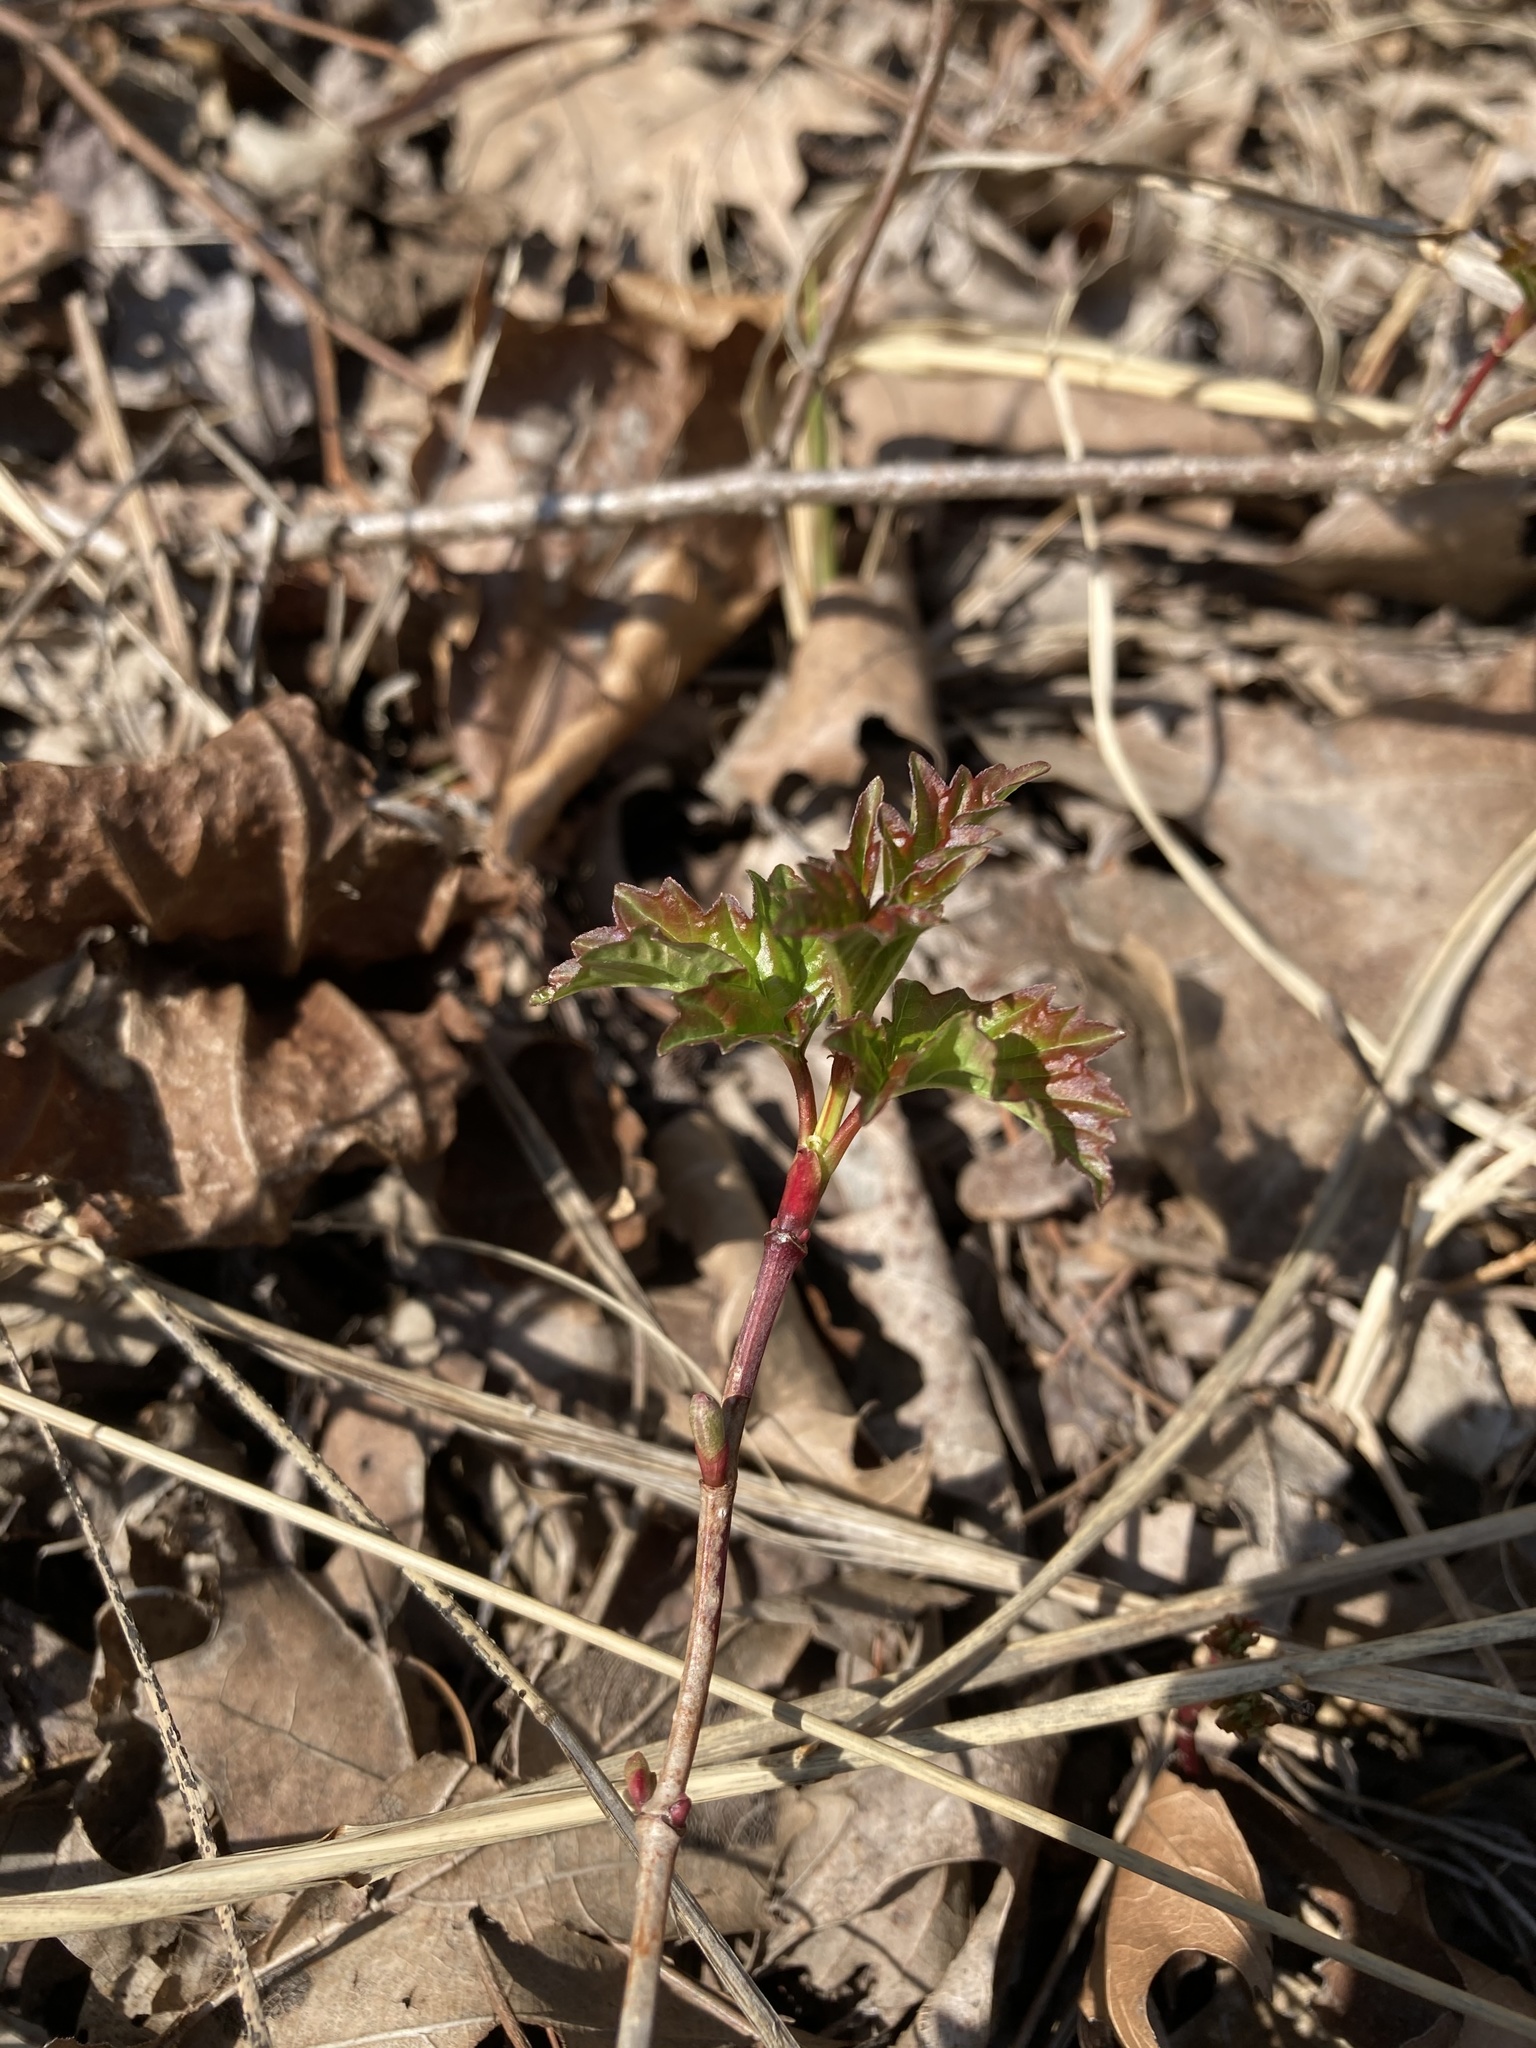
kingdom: Plantae
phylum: Tracheophyta
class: Magnoliopsida
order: Dipsacales
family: Viburnaceae
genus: Viburnum
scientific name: Viburnum opulus
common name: Guelder-rose
